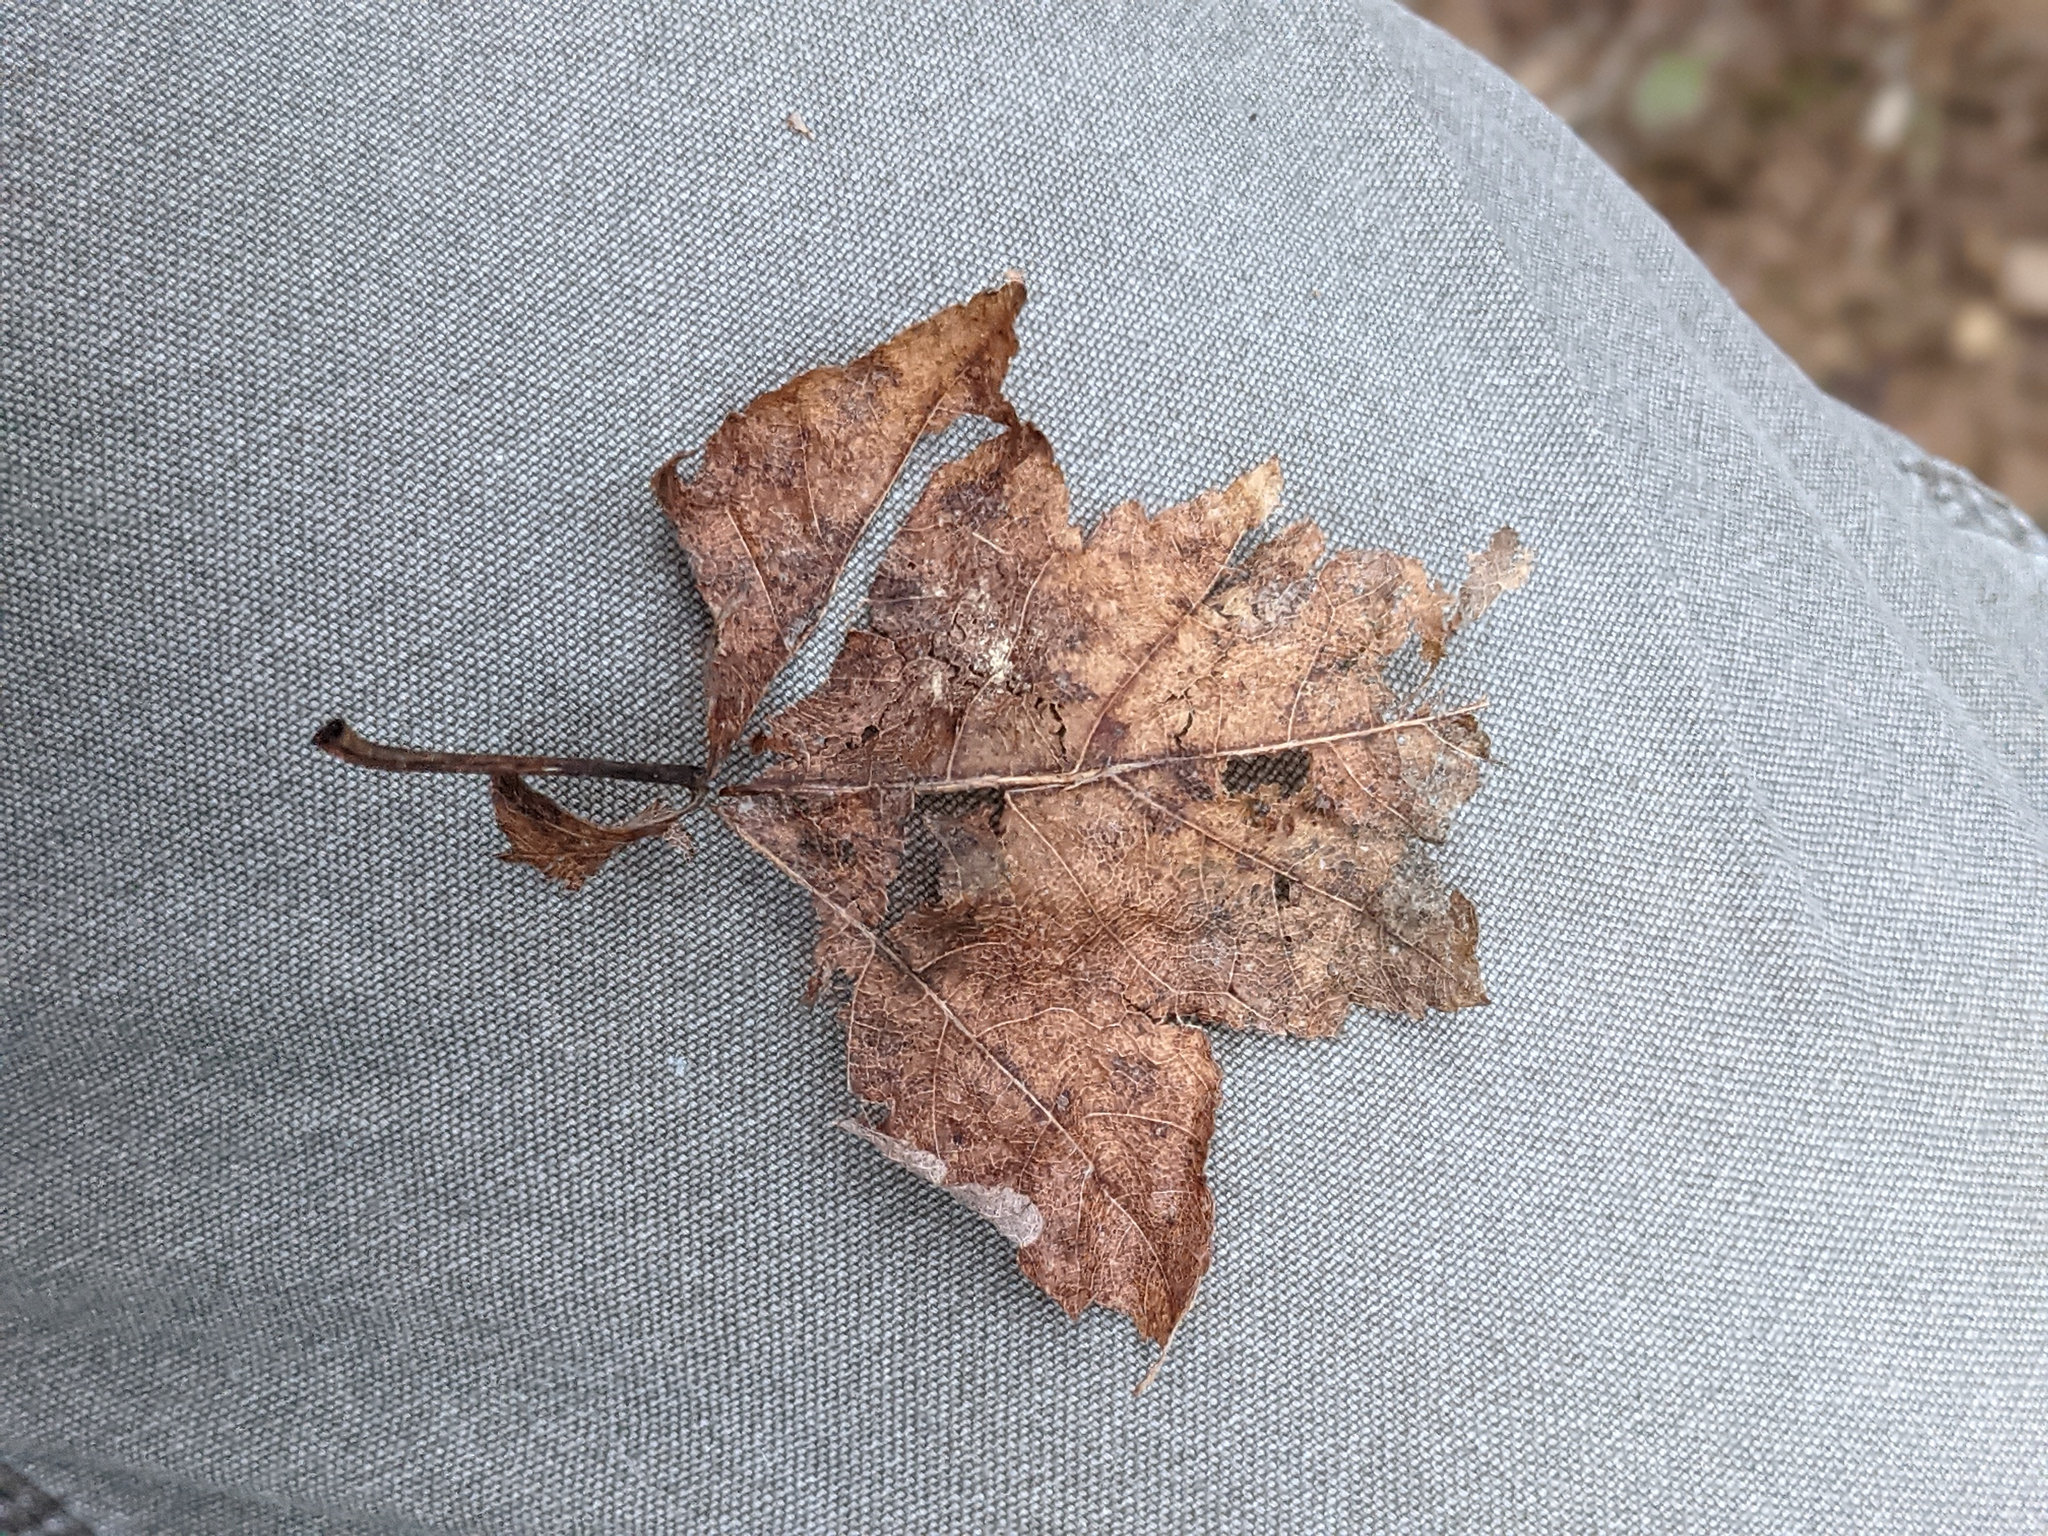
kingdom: Plantae
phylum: Tracheophyta
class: Magnoliopsida
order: Sapindales
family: Sapindaceae
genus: Acer
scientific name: Acer rubrum
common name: Red maple
